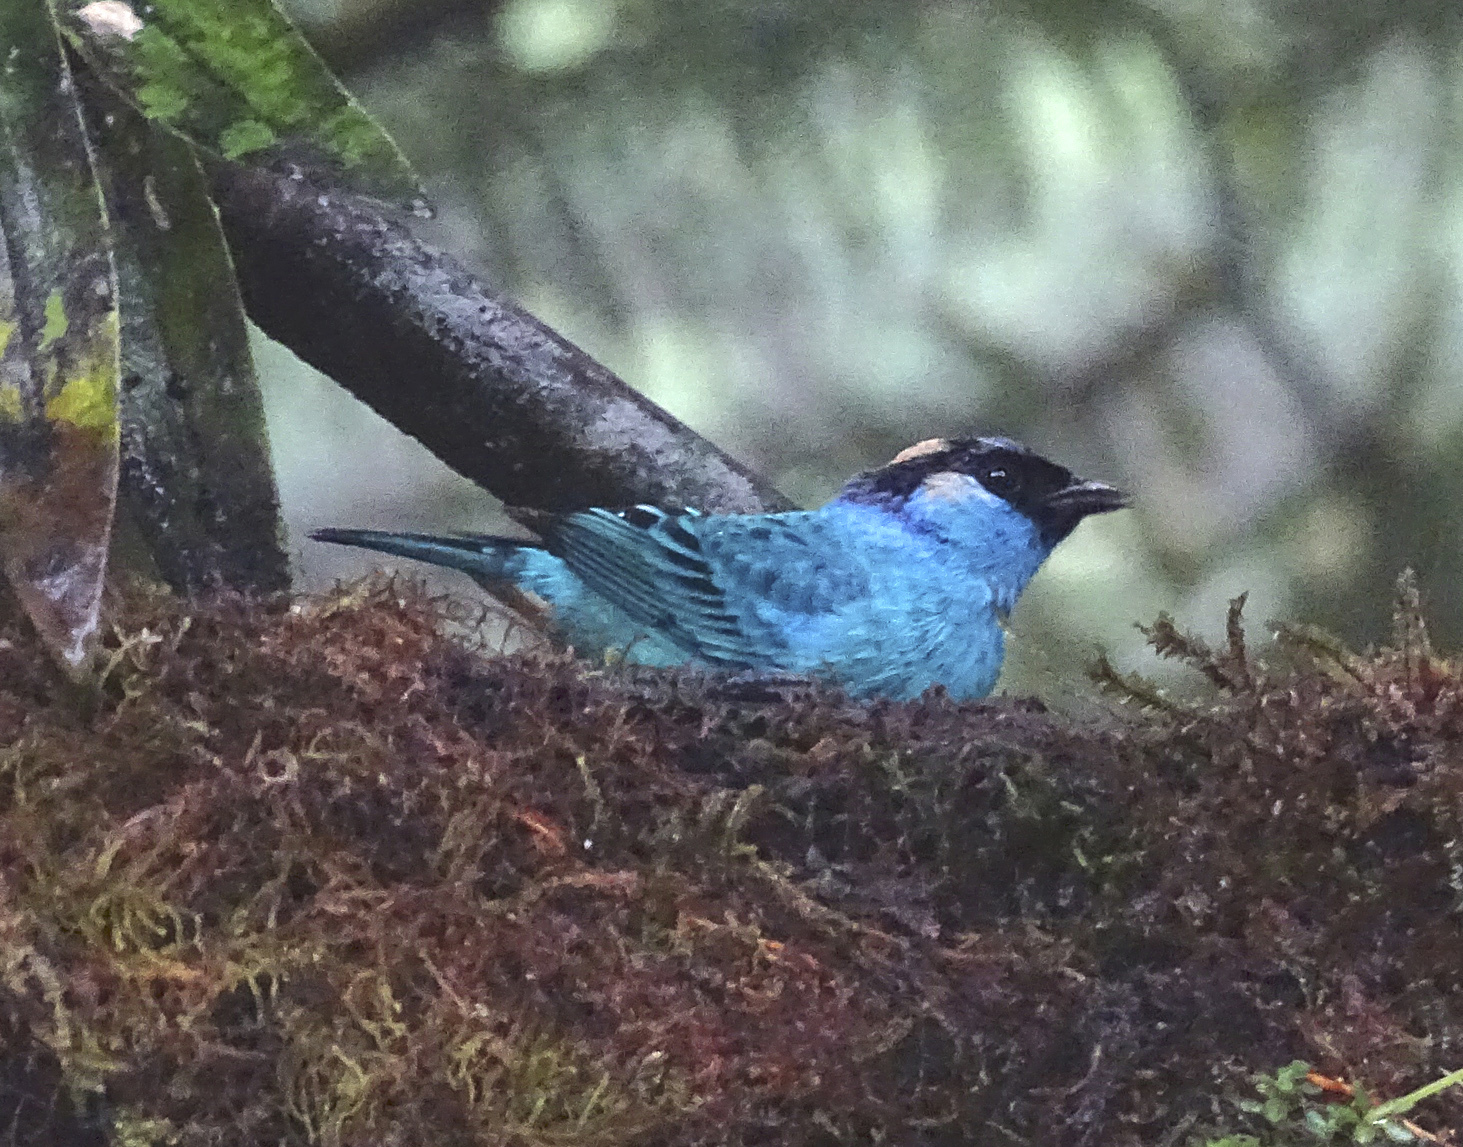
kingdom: Animalia
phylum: Chordata
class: Aves
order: Passeriformes
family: Thraupidae
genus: Chalcothraupis
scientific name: Chalcothraupis ruficervix
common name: Golden-naped tanager
